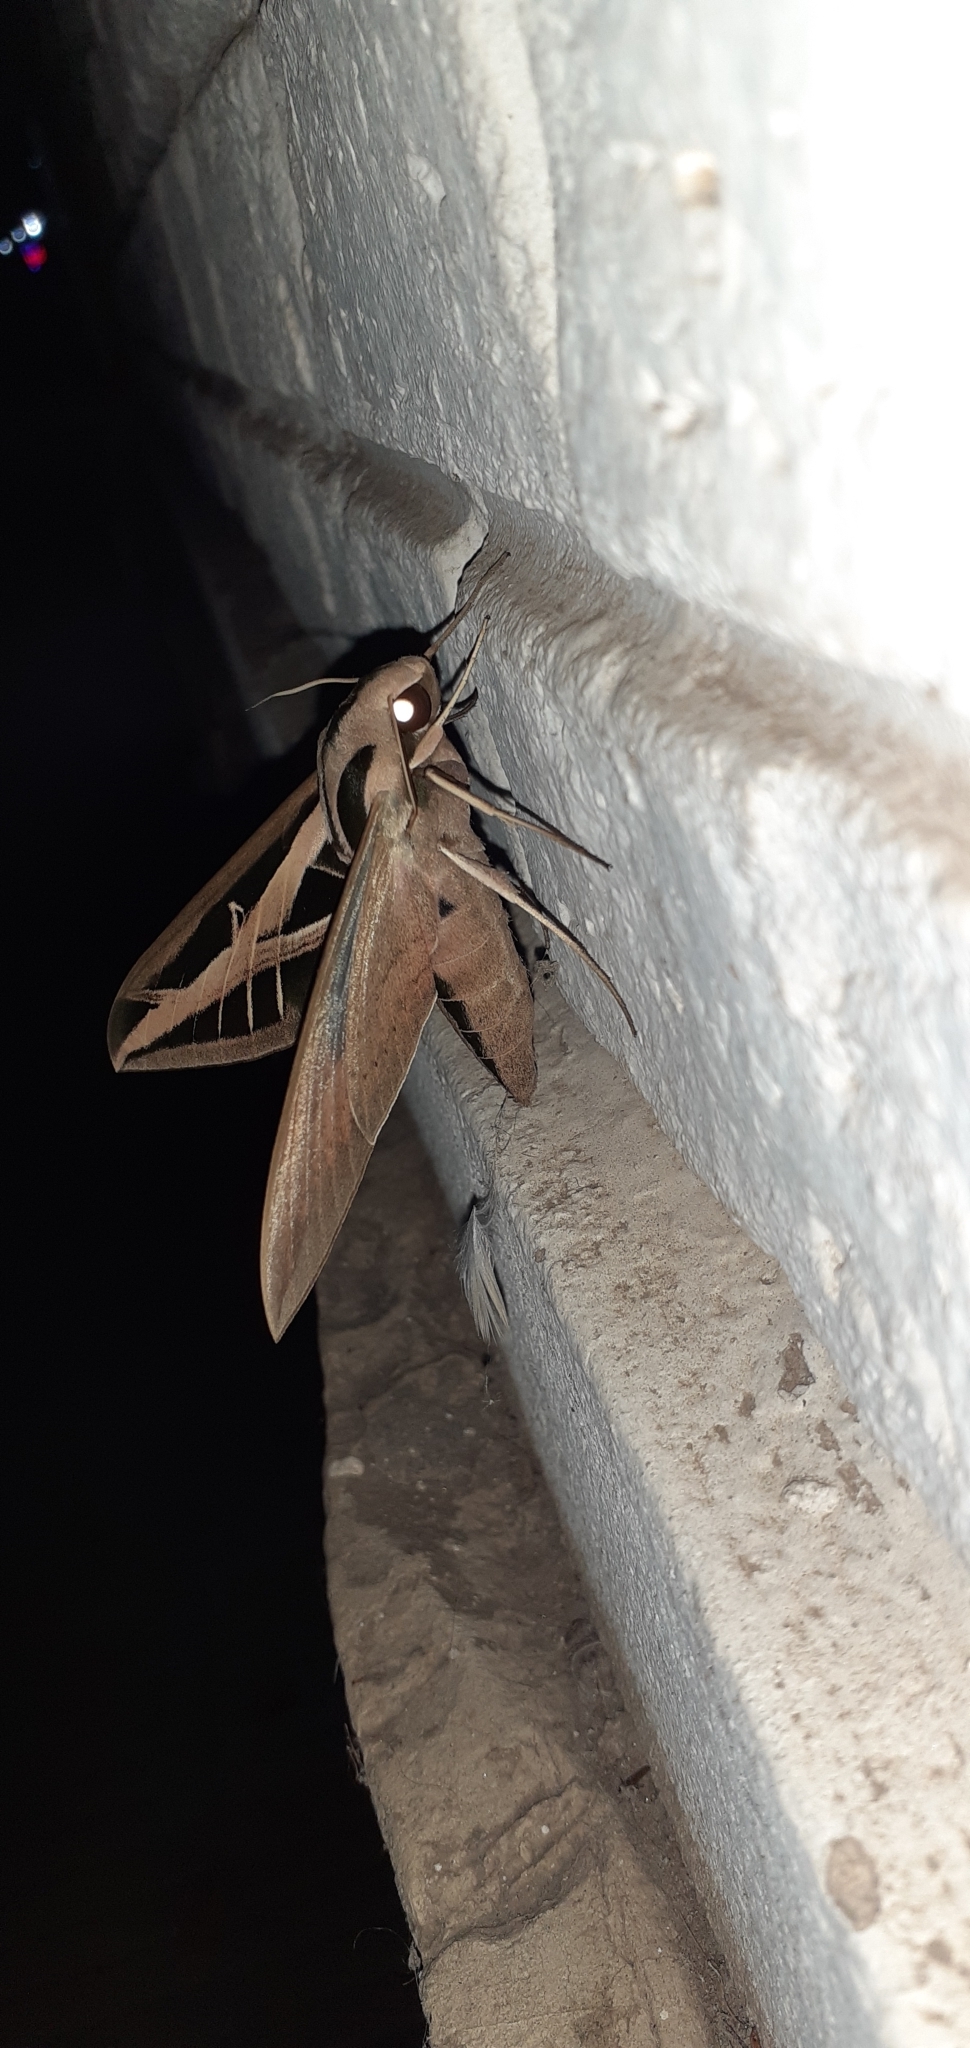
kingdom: Animalia
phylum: Arthropoda
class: Insecta
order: Lepidoptera
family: Sphingidae
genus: Eumorpha
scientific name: Eumorpha fasciatus
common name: Banded sphinx
